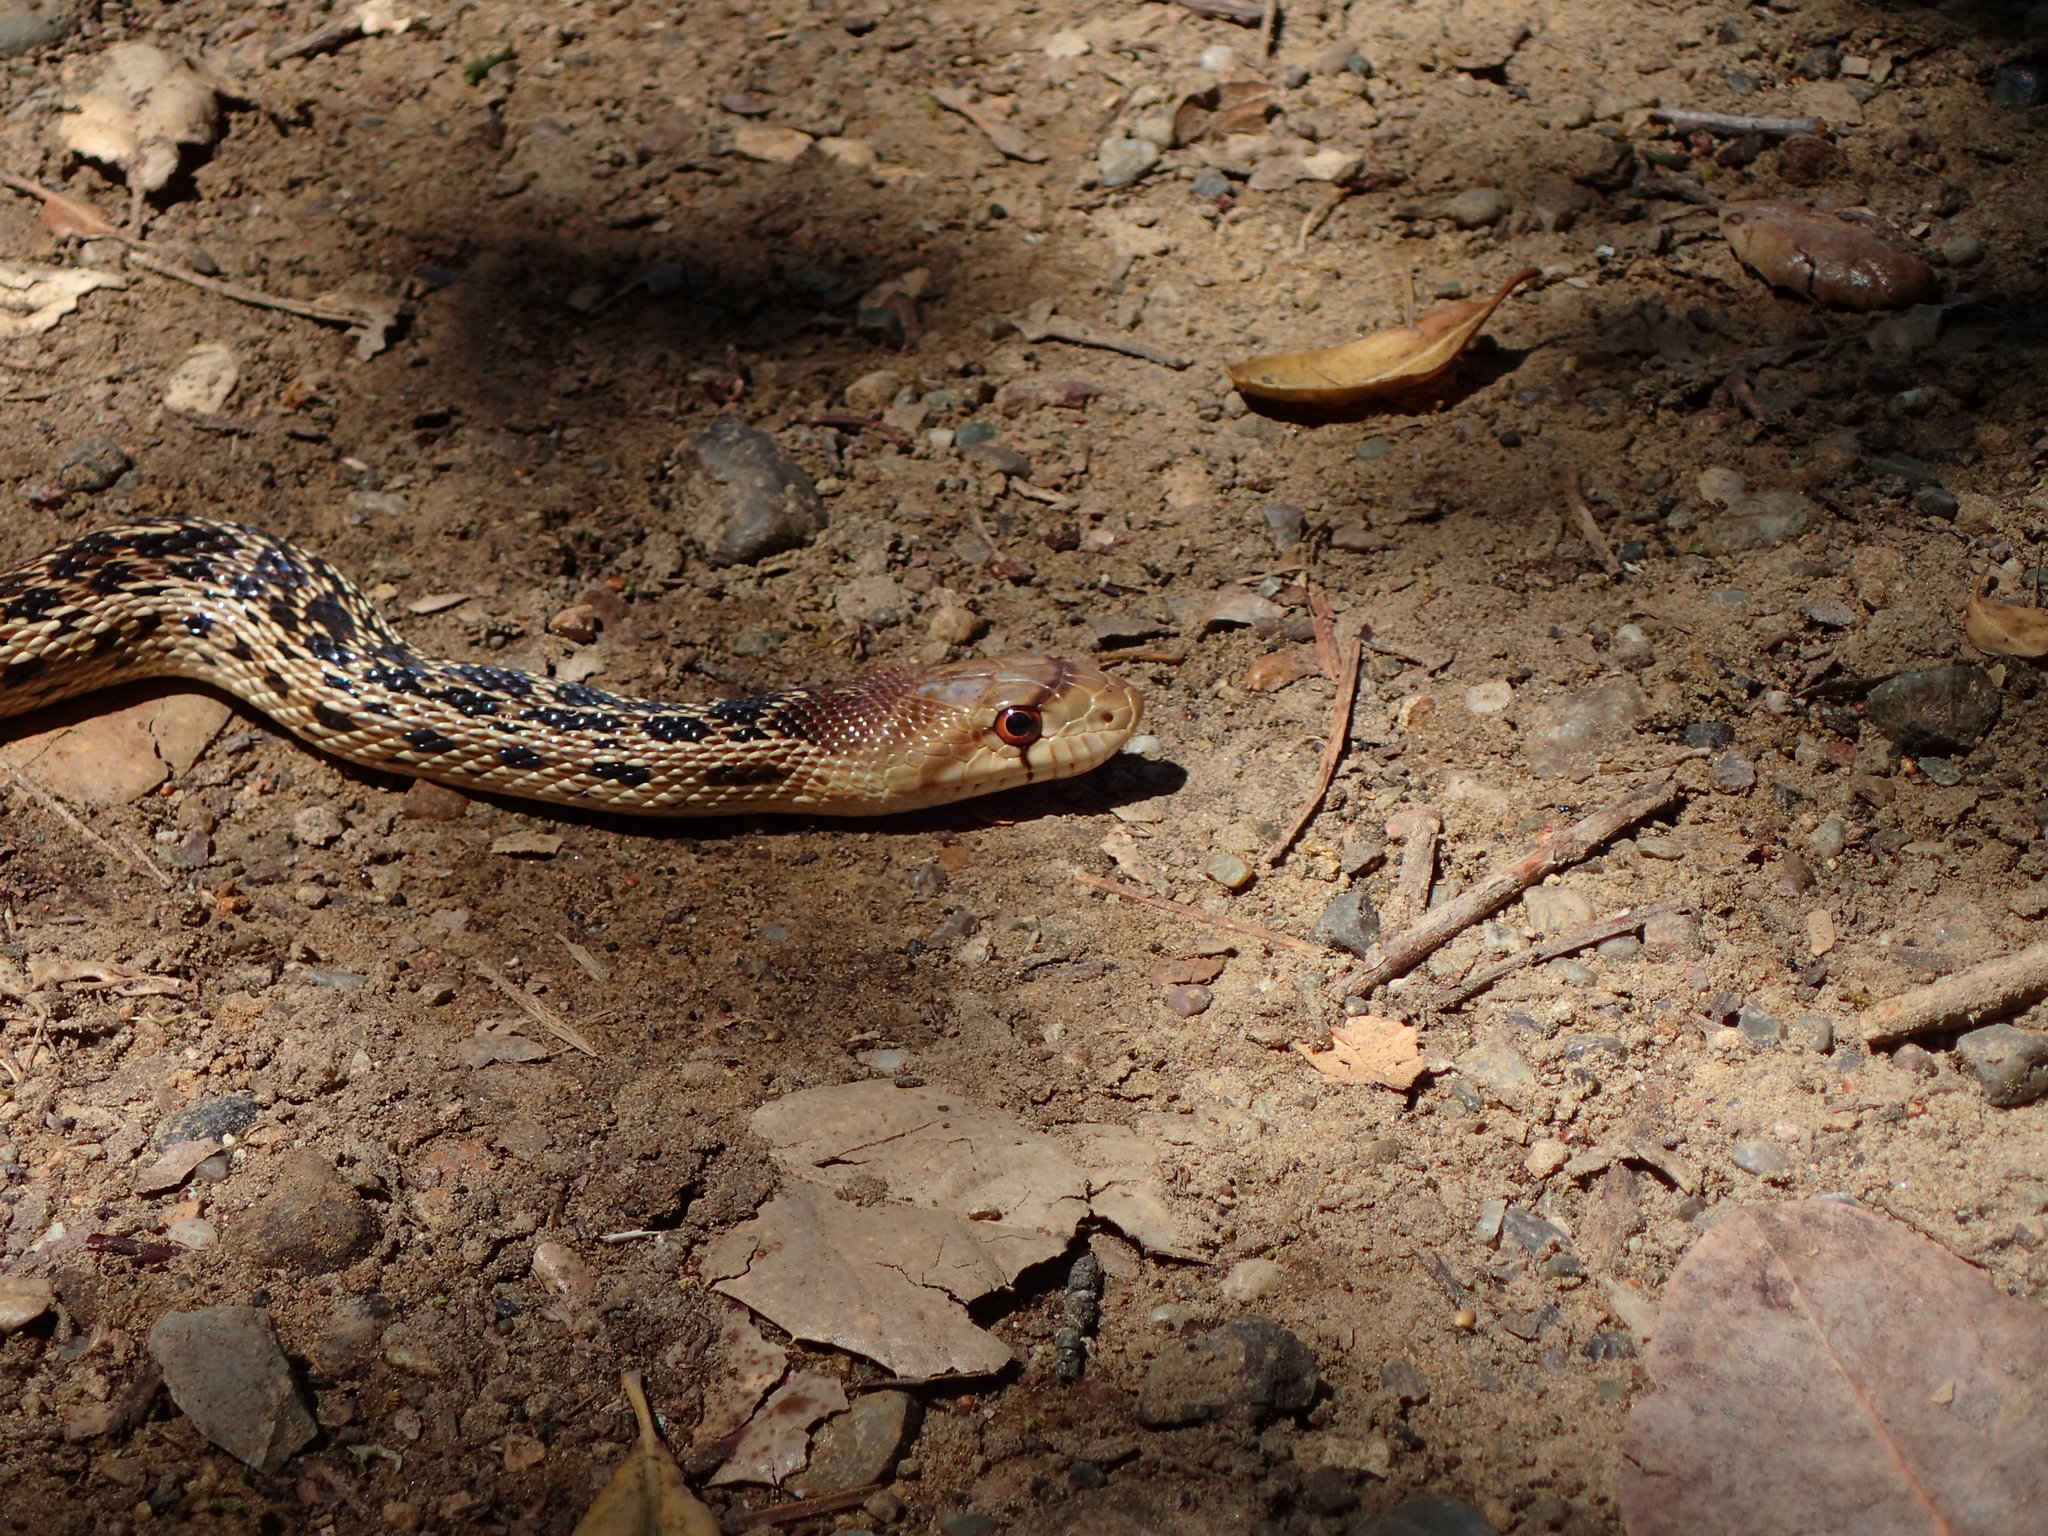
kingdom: Animalia
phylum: Chordata
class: Squamata
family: Colubridae
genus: Pituophis
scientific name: Pituophis catenifer
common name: Gopher snake
